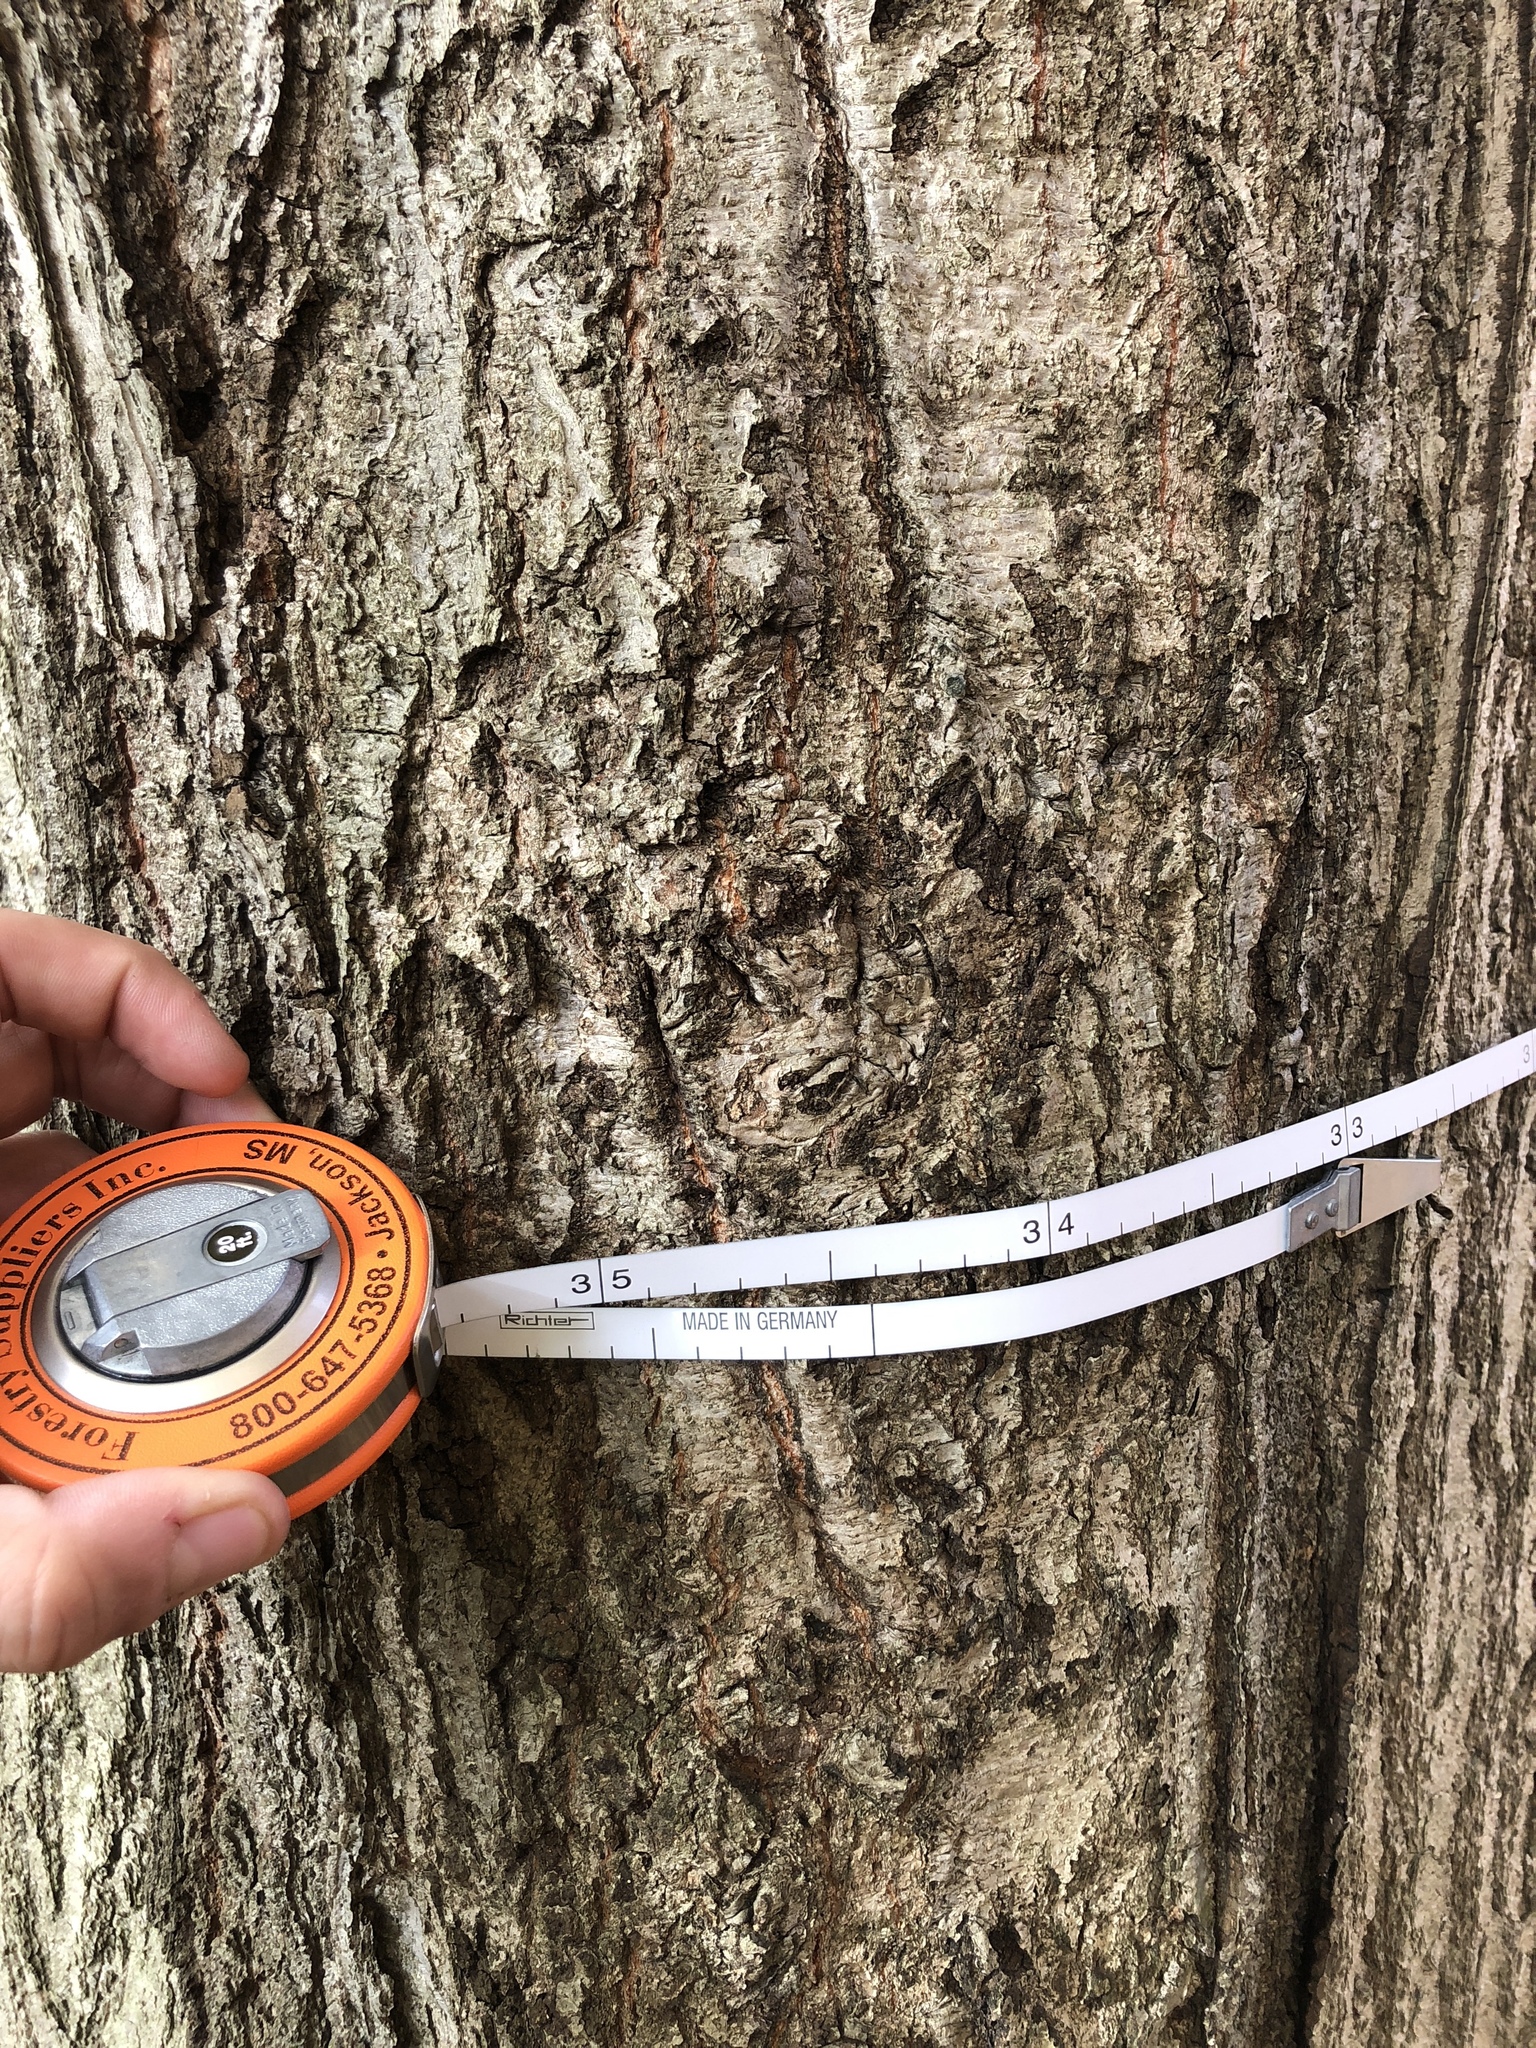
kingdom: Plantae
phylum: Tracheophyta
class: Magnoliopsida
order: Fagales
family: Fagaceae
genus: Quercus
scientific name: Quercus rubra
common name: Red oak
